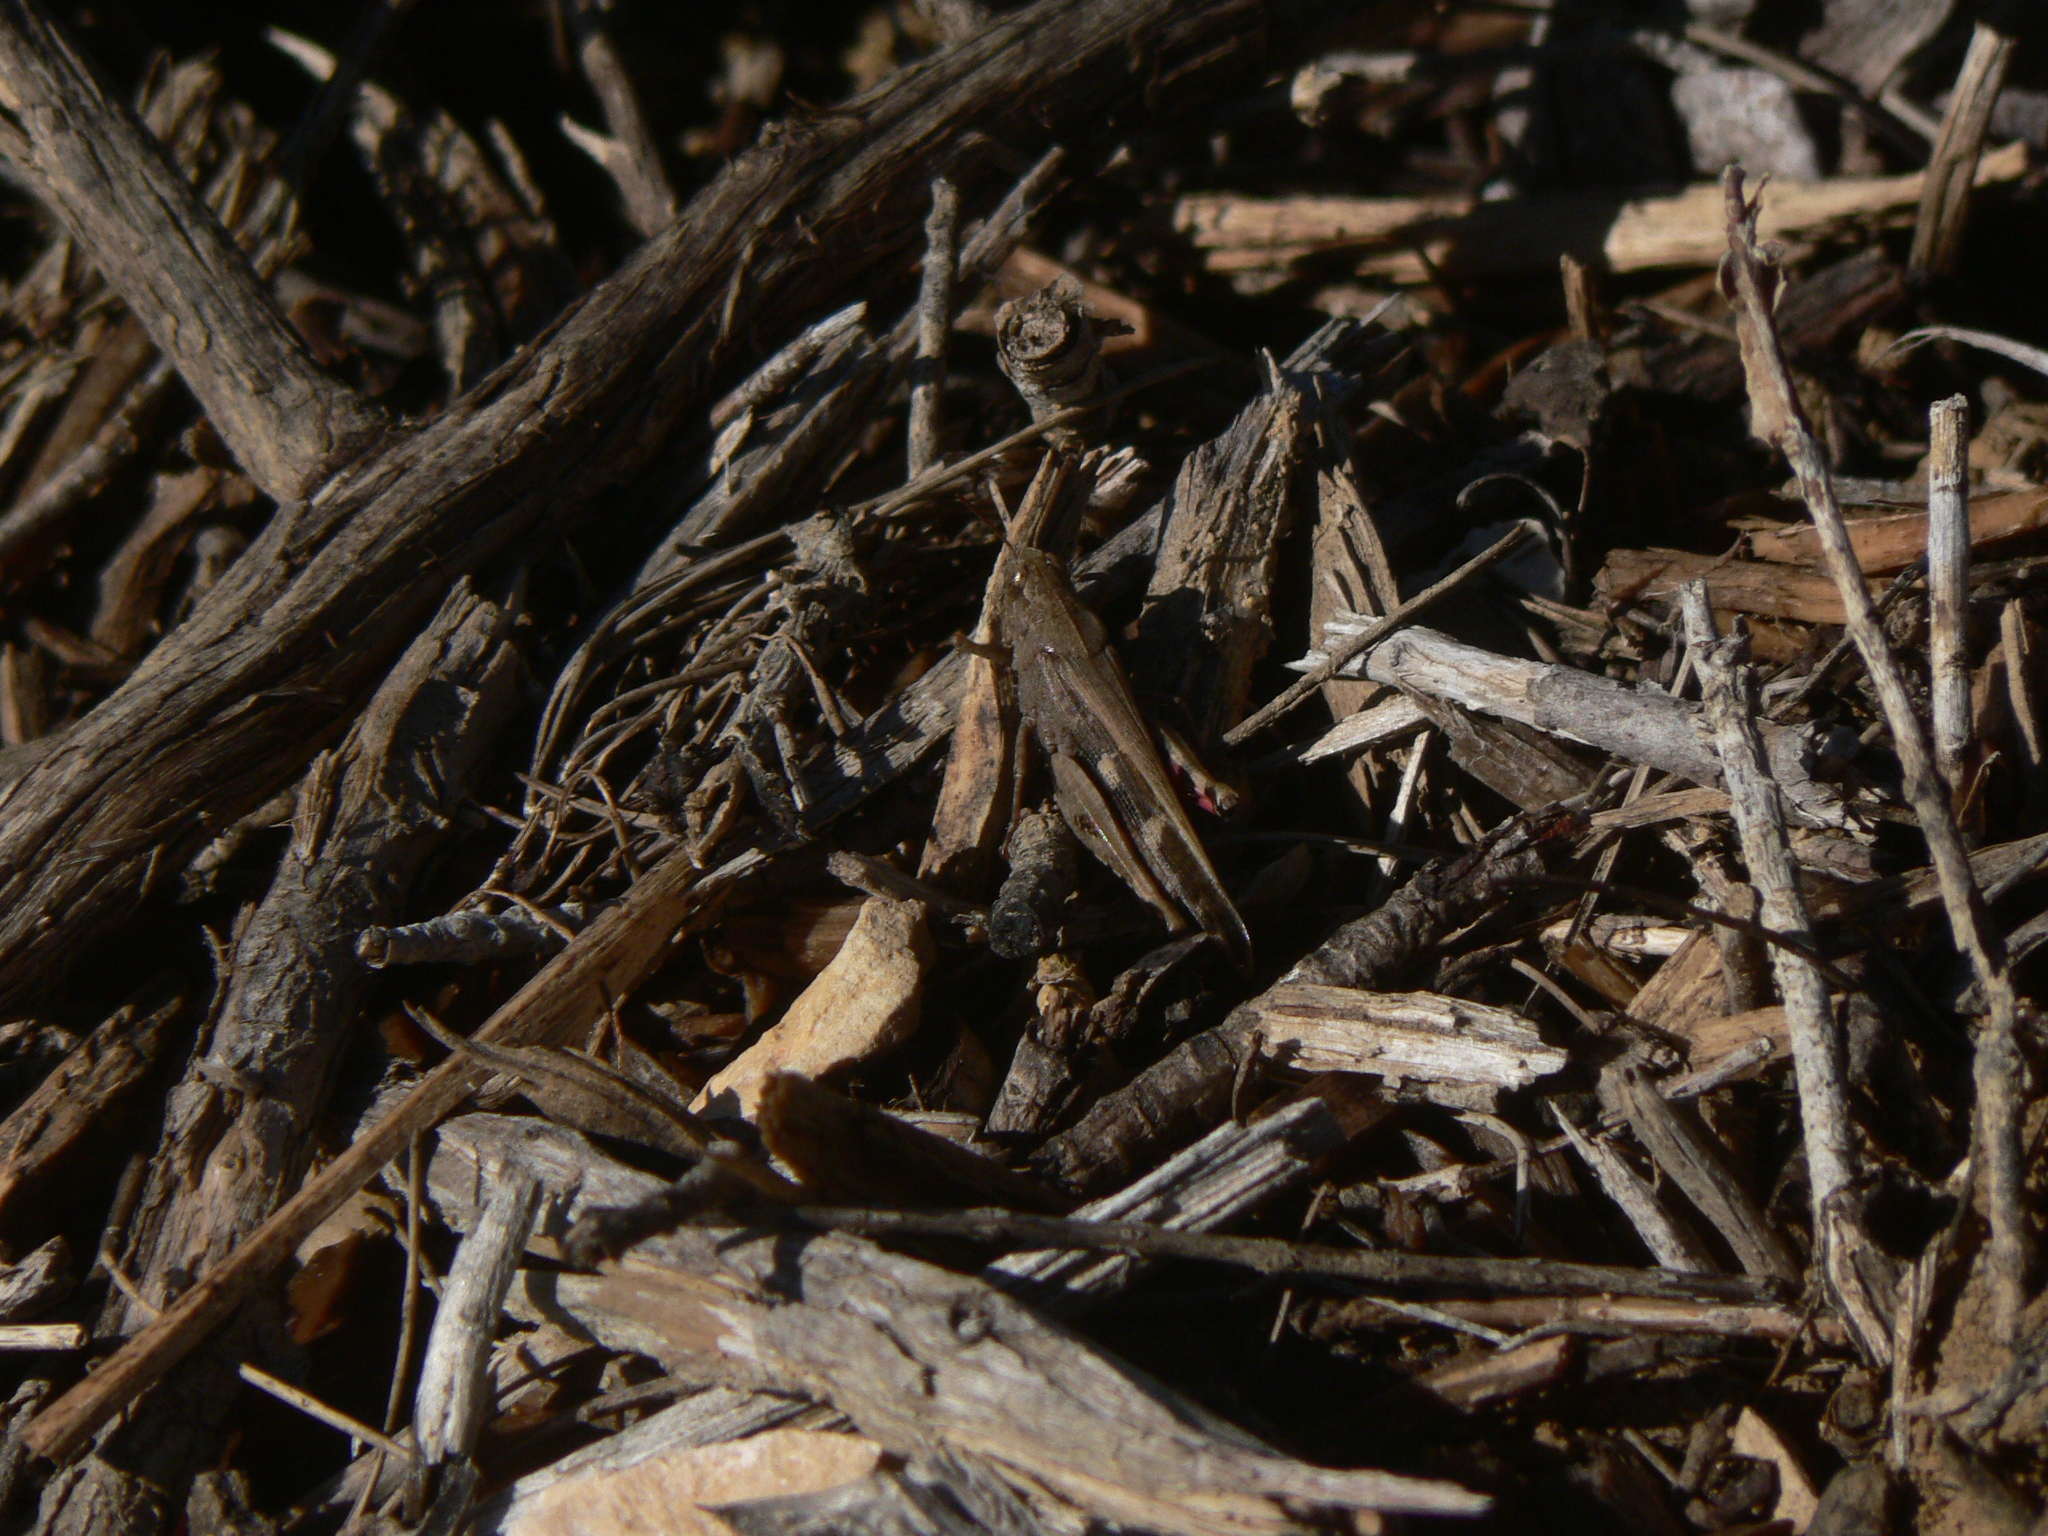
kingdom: Animalia
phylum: Arthropoda
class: Insecta
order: Orthoptera
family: Acrididae
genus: Aiolopus
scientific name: Aiolopus strepens
